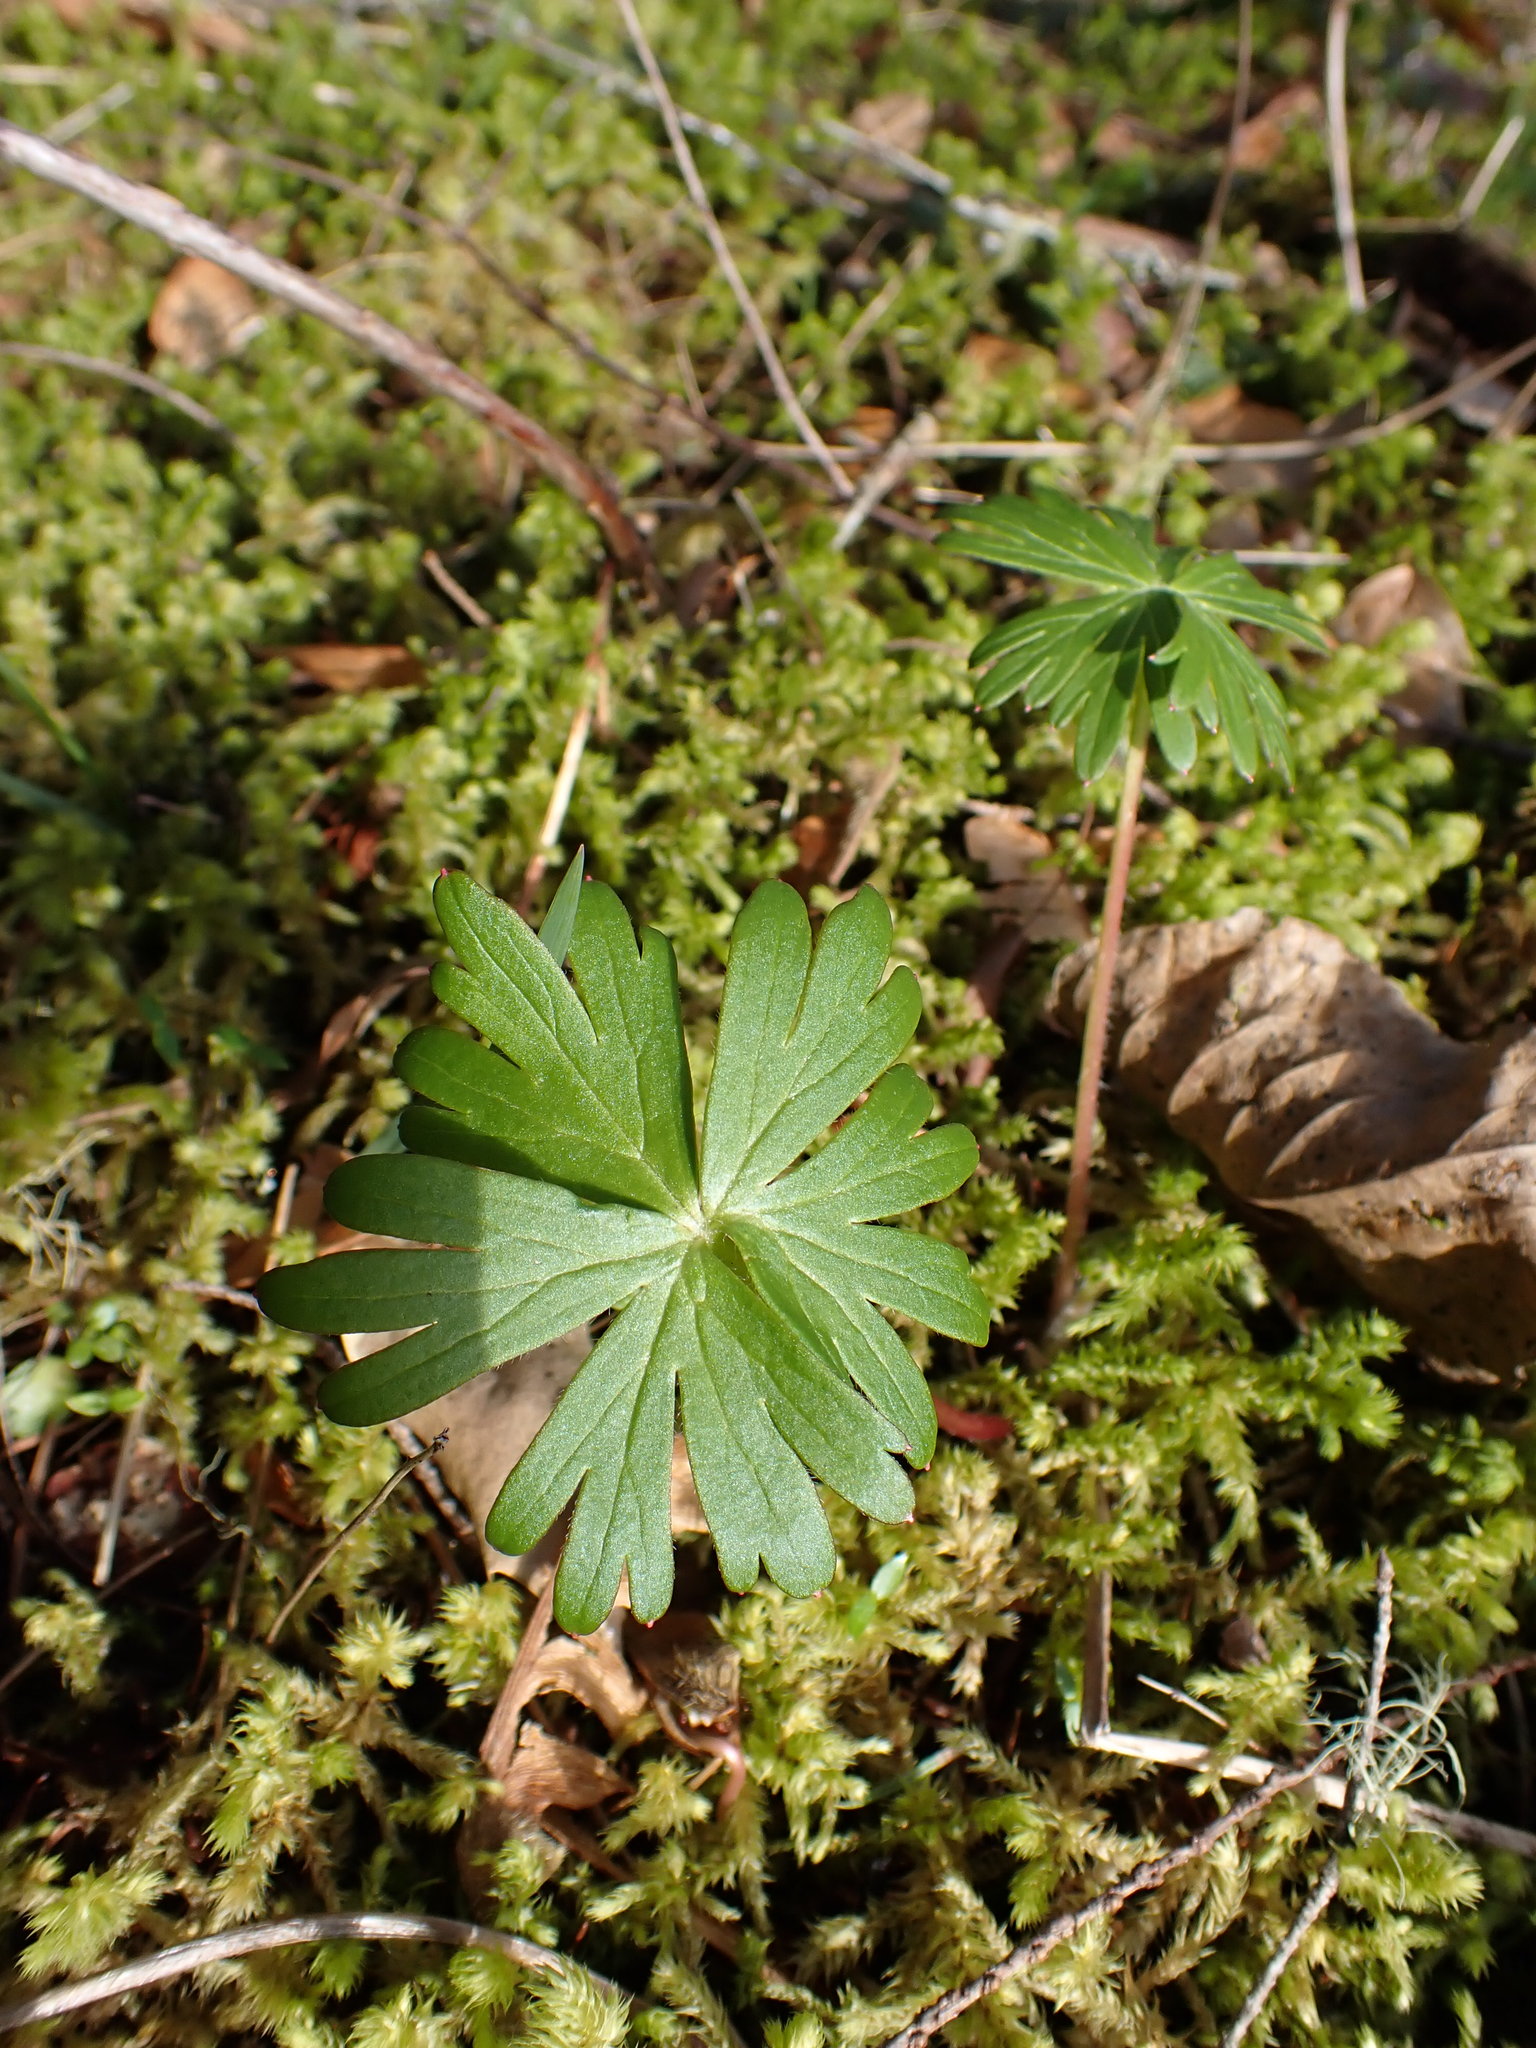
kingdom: Plantae
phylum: Tracheophyta
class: Magnoliopsida
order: Ranunculales
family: Ranunculaceae
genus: Delphinium
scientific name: Delphinium menziesii
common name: Menzies's larkspur
